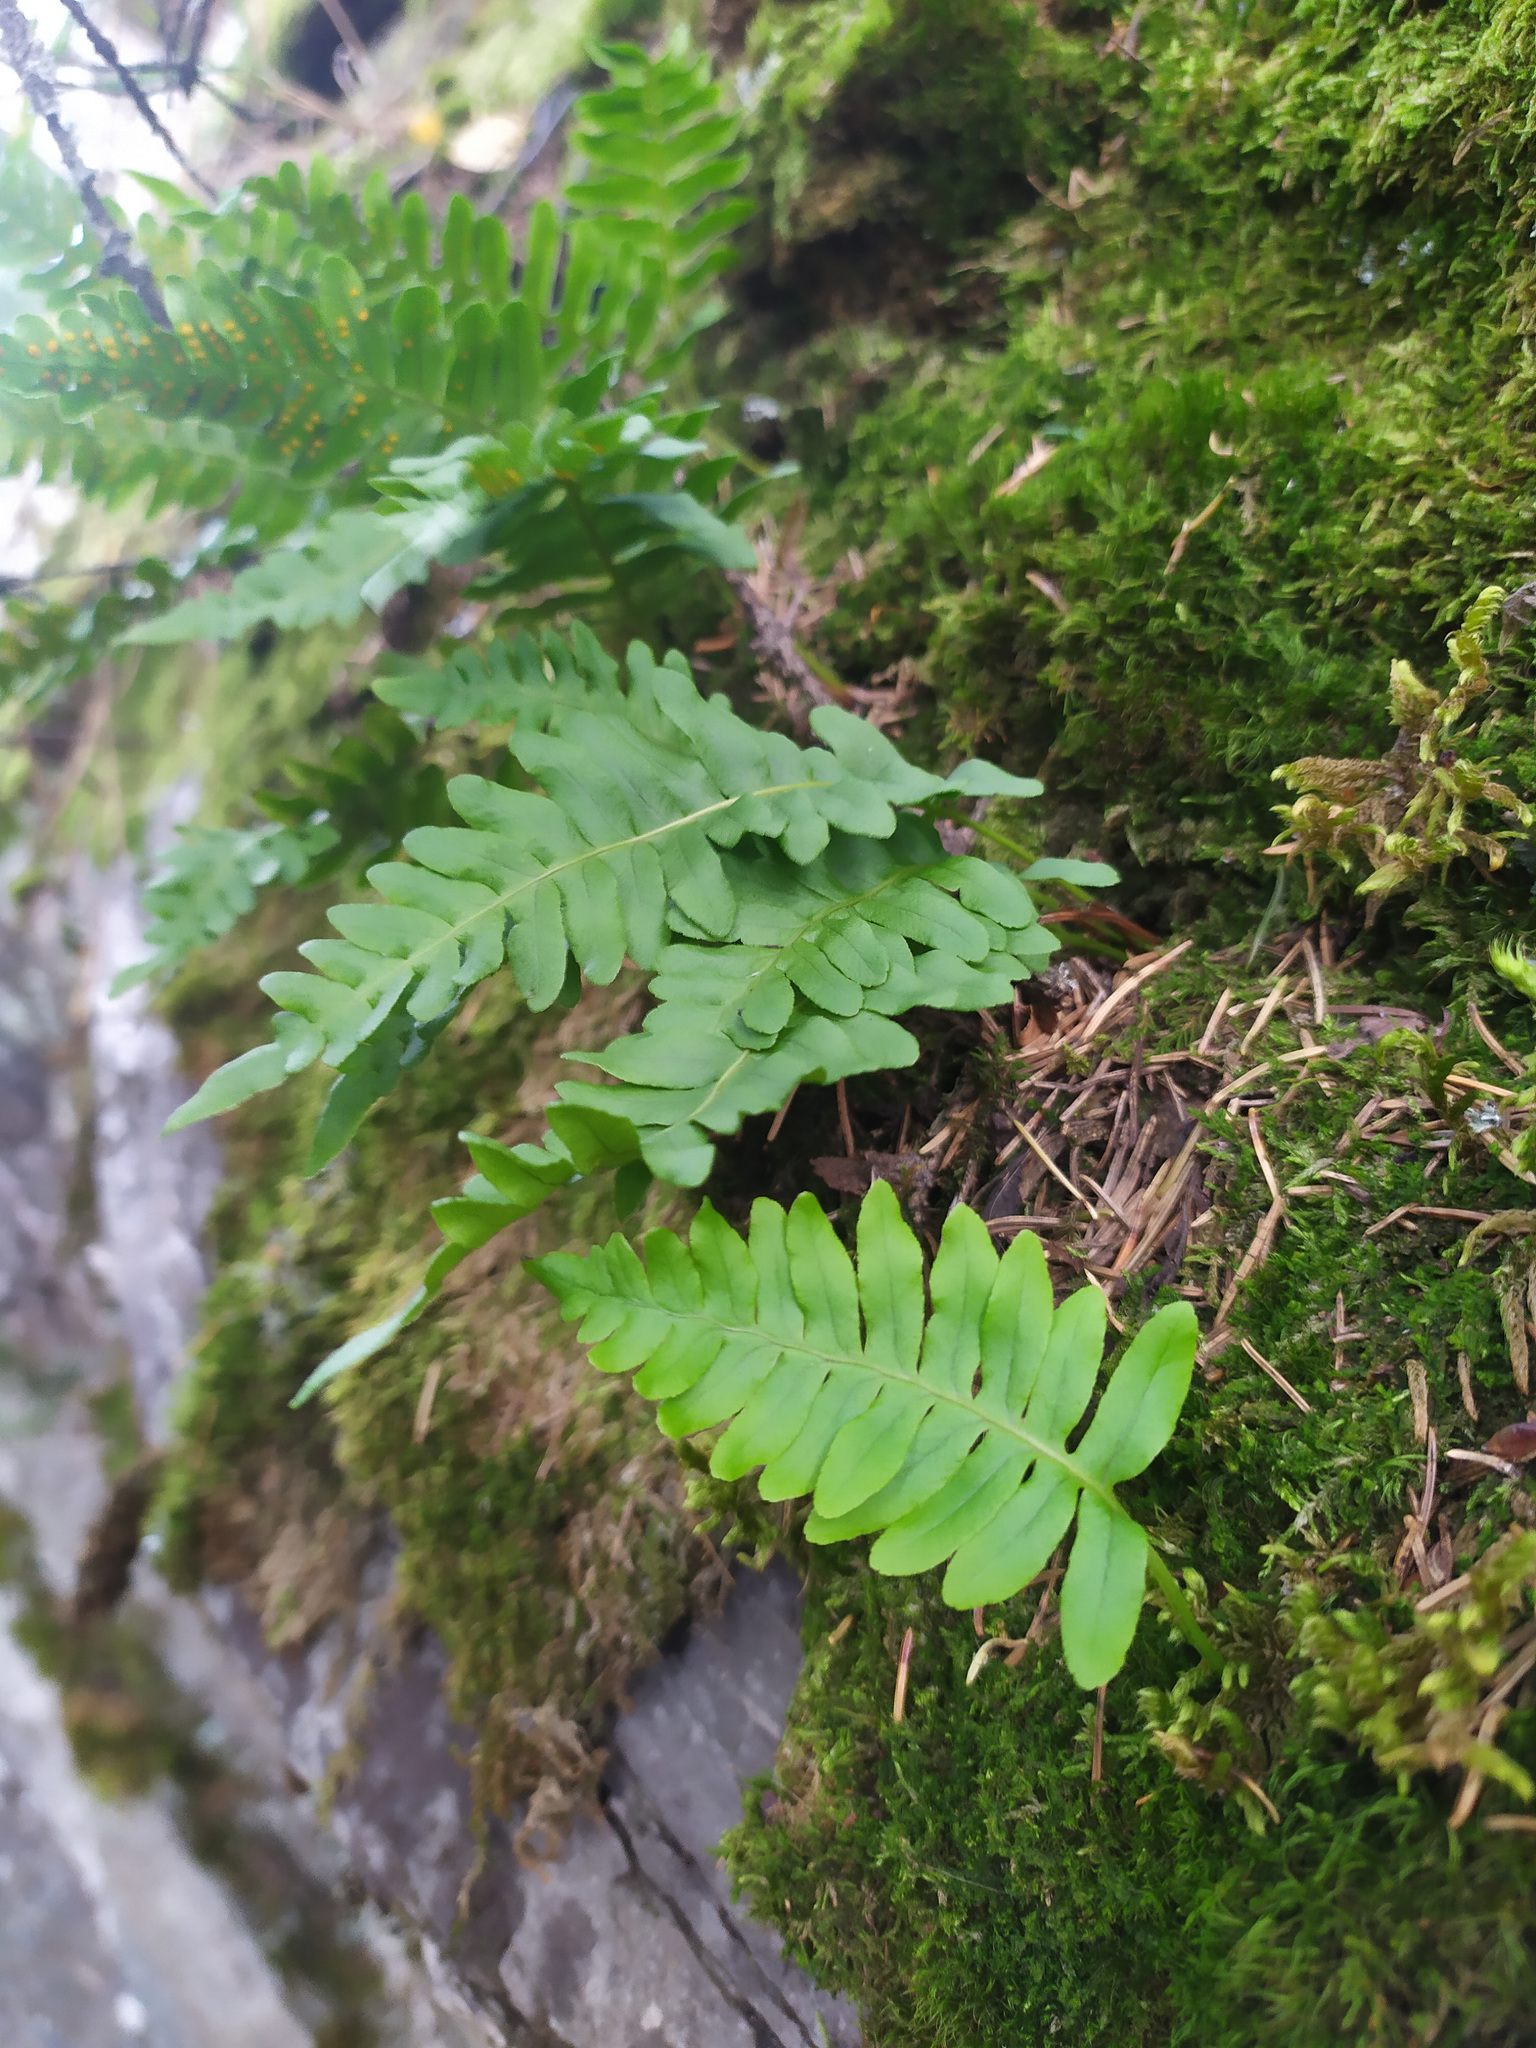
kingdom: Plantae
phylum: Tracheophyta
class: Polypodiopsida
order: Polypodiales
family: Polypodiaceae
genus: Polypodium
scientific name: Polypodium vulgare
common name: Common polypody
